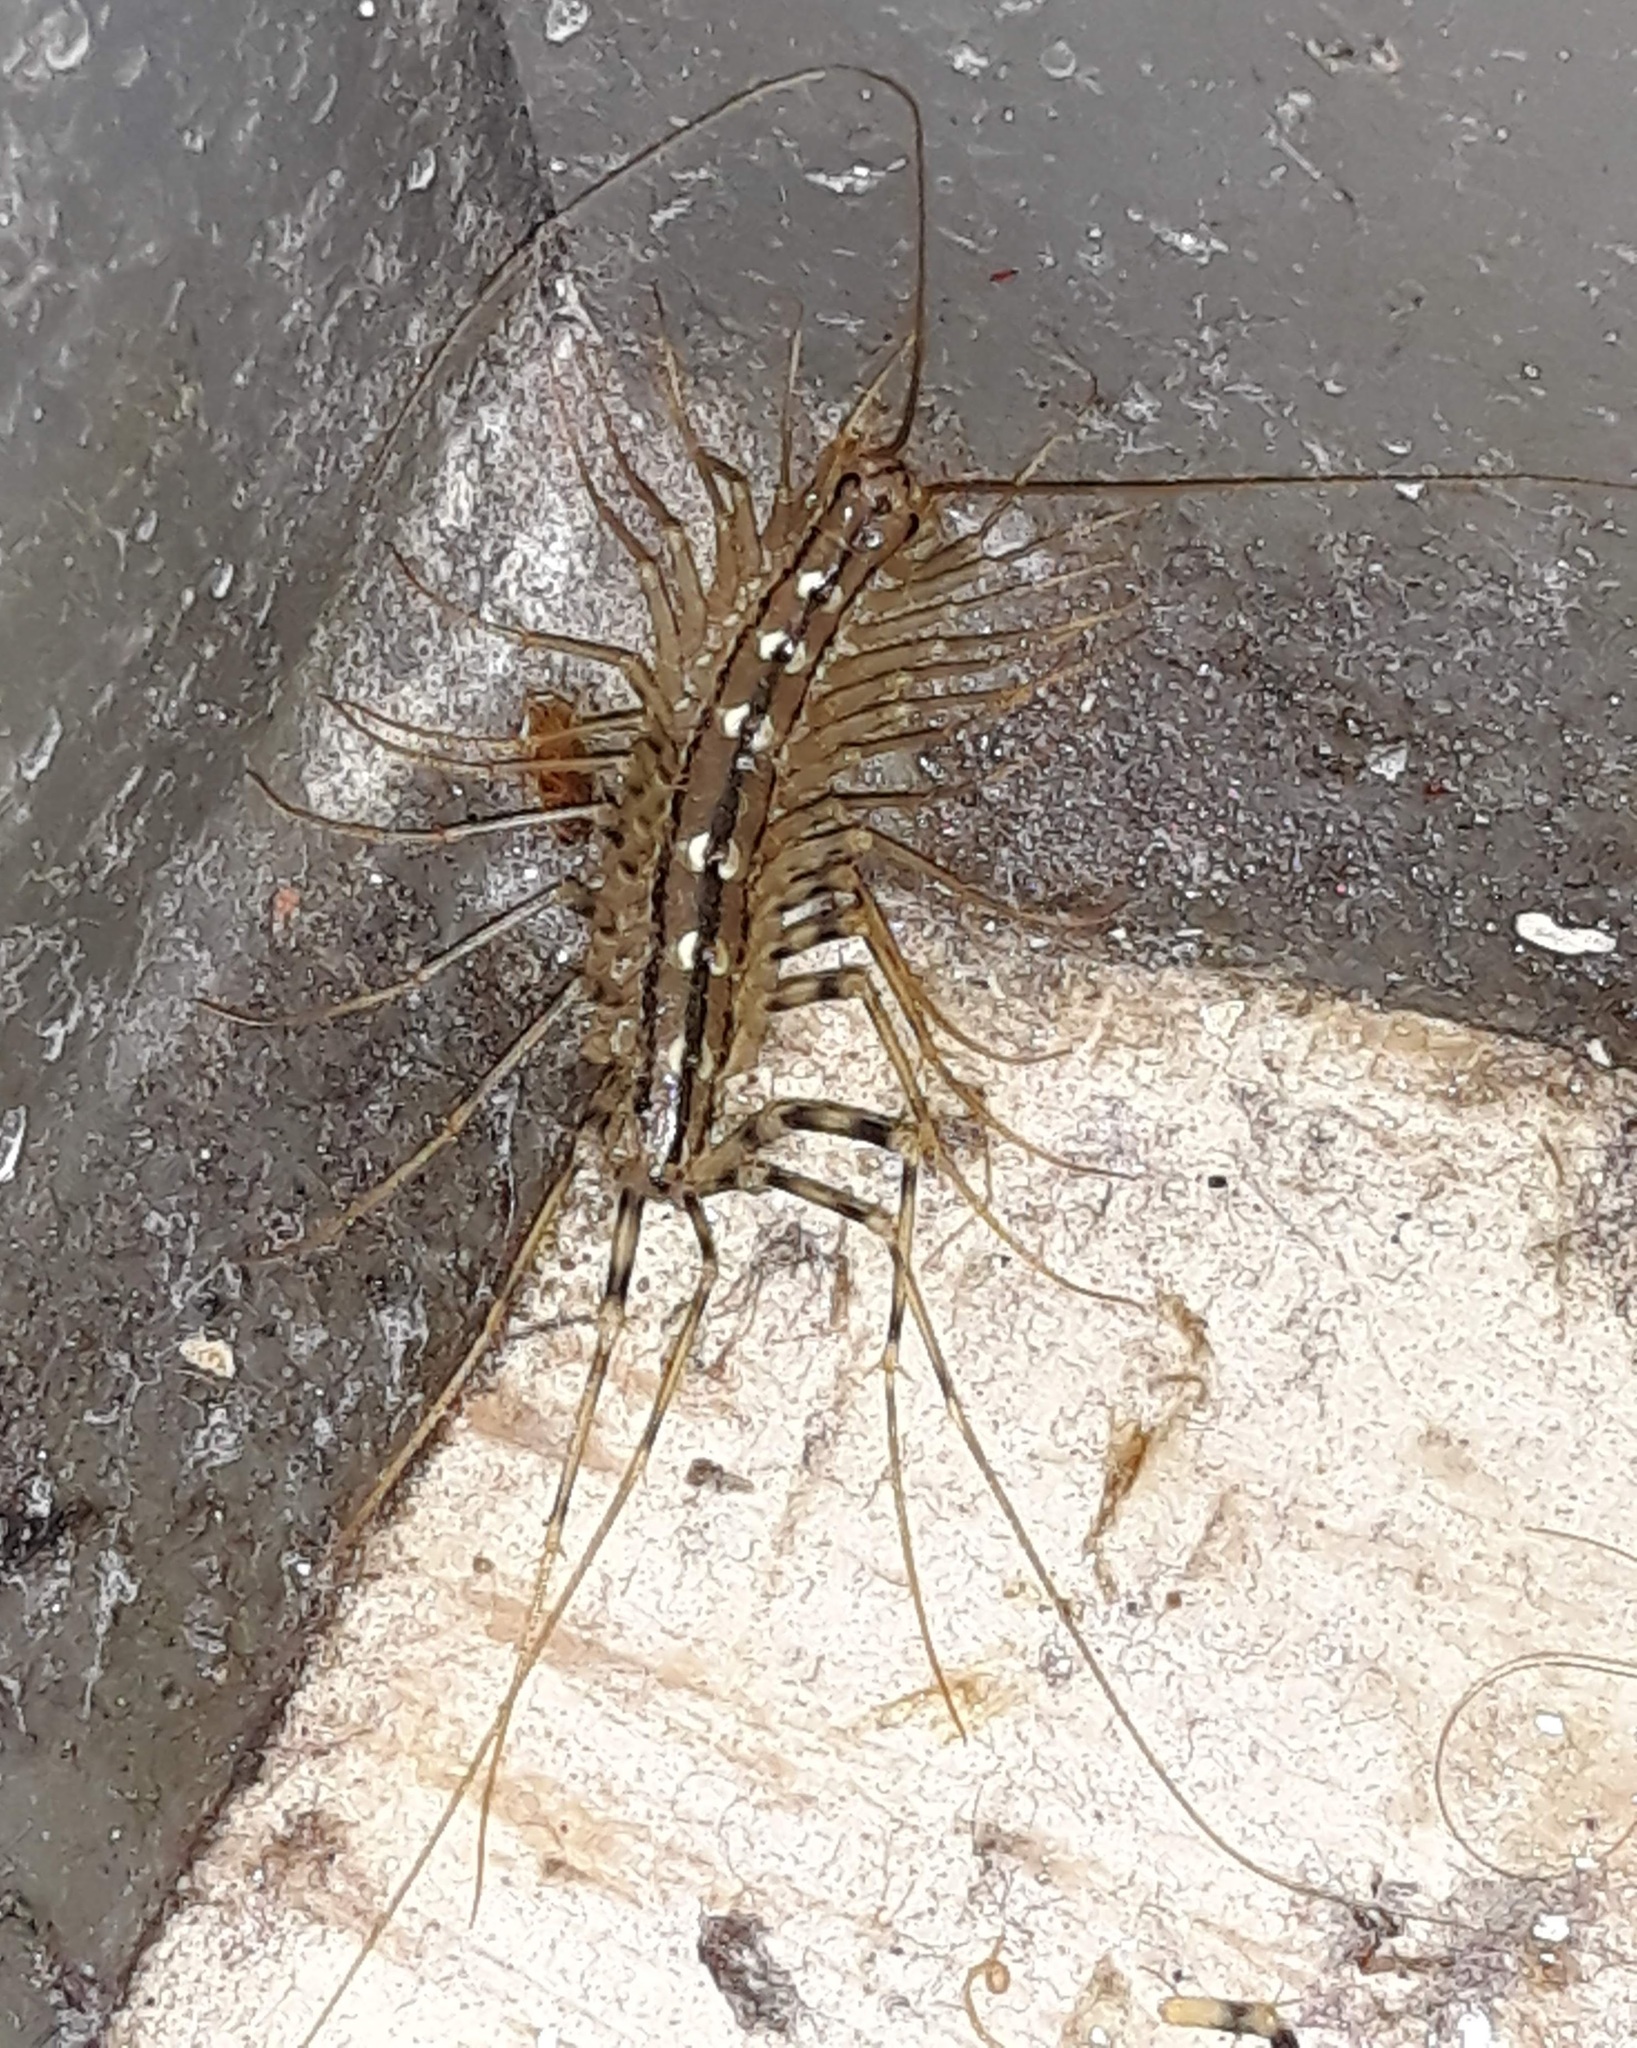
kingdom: Animalia
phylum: Arthropoda
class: Chilopoda
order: Scutigeromorpha
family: Scutigeridae
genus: Scutigera
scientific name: Scutigera coleoptrata
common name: House centipede
